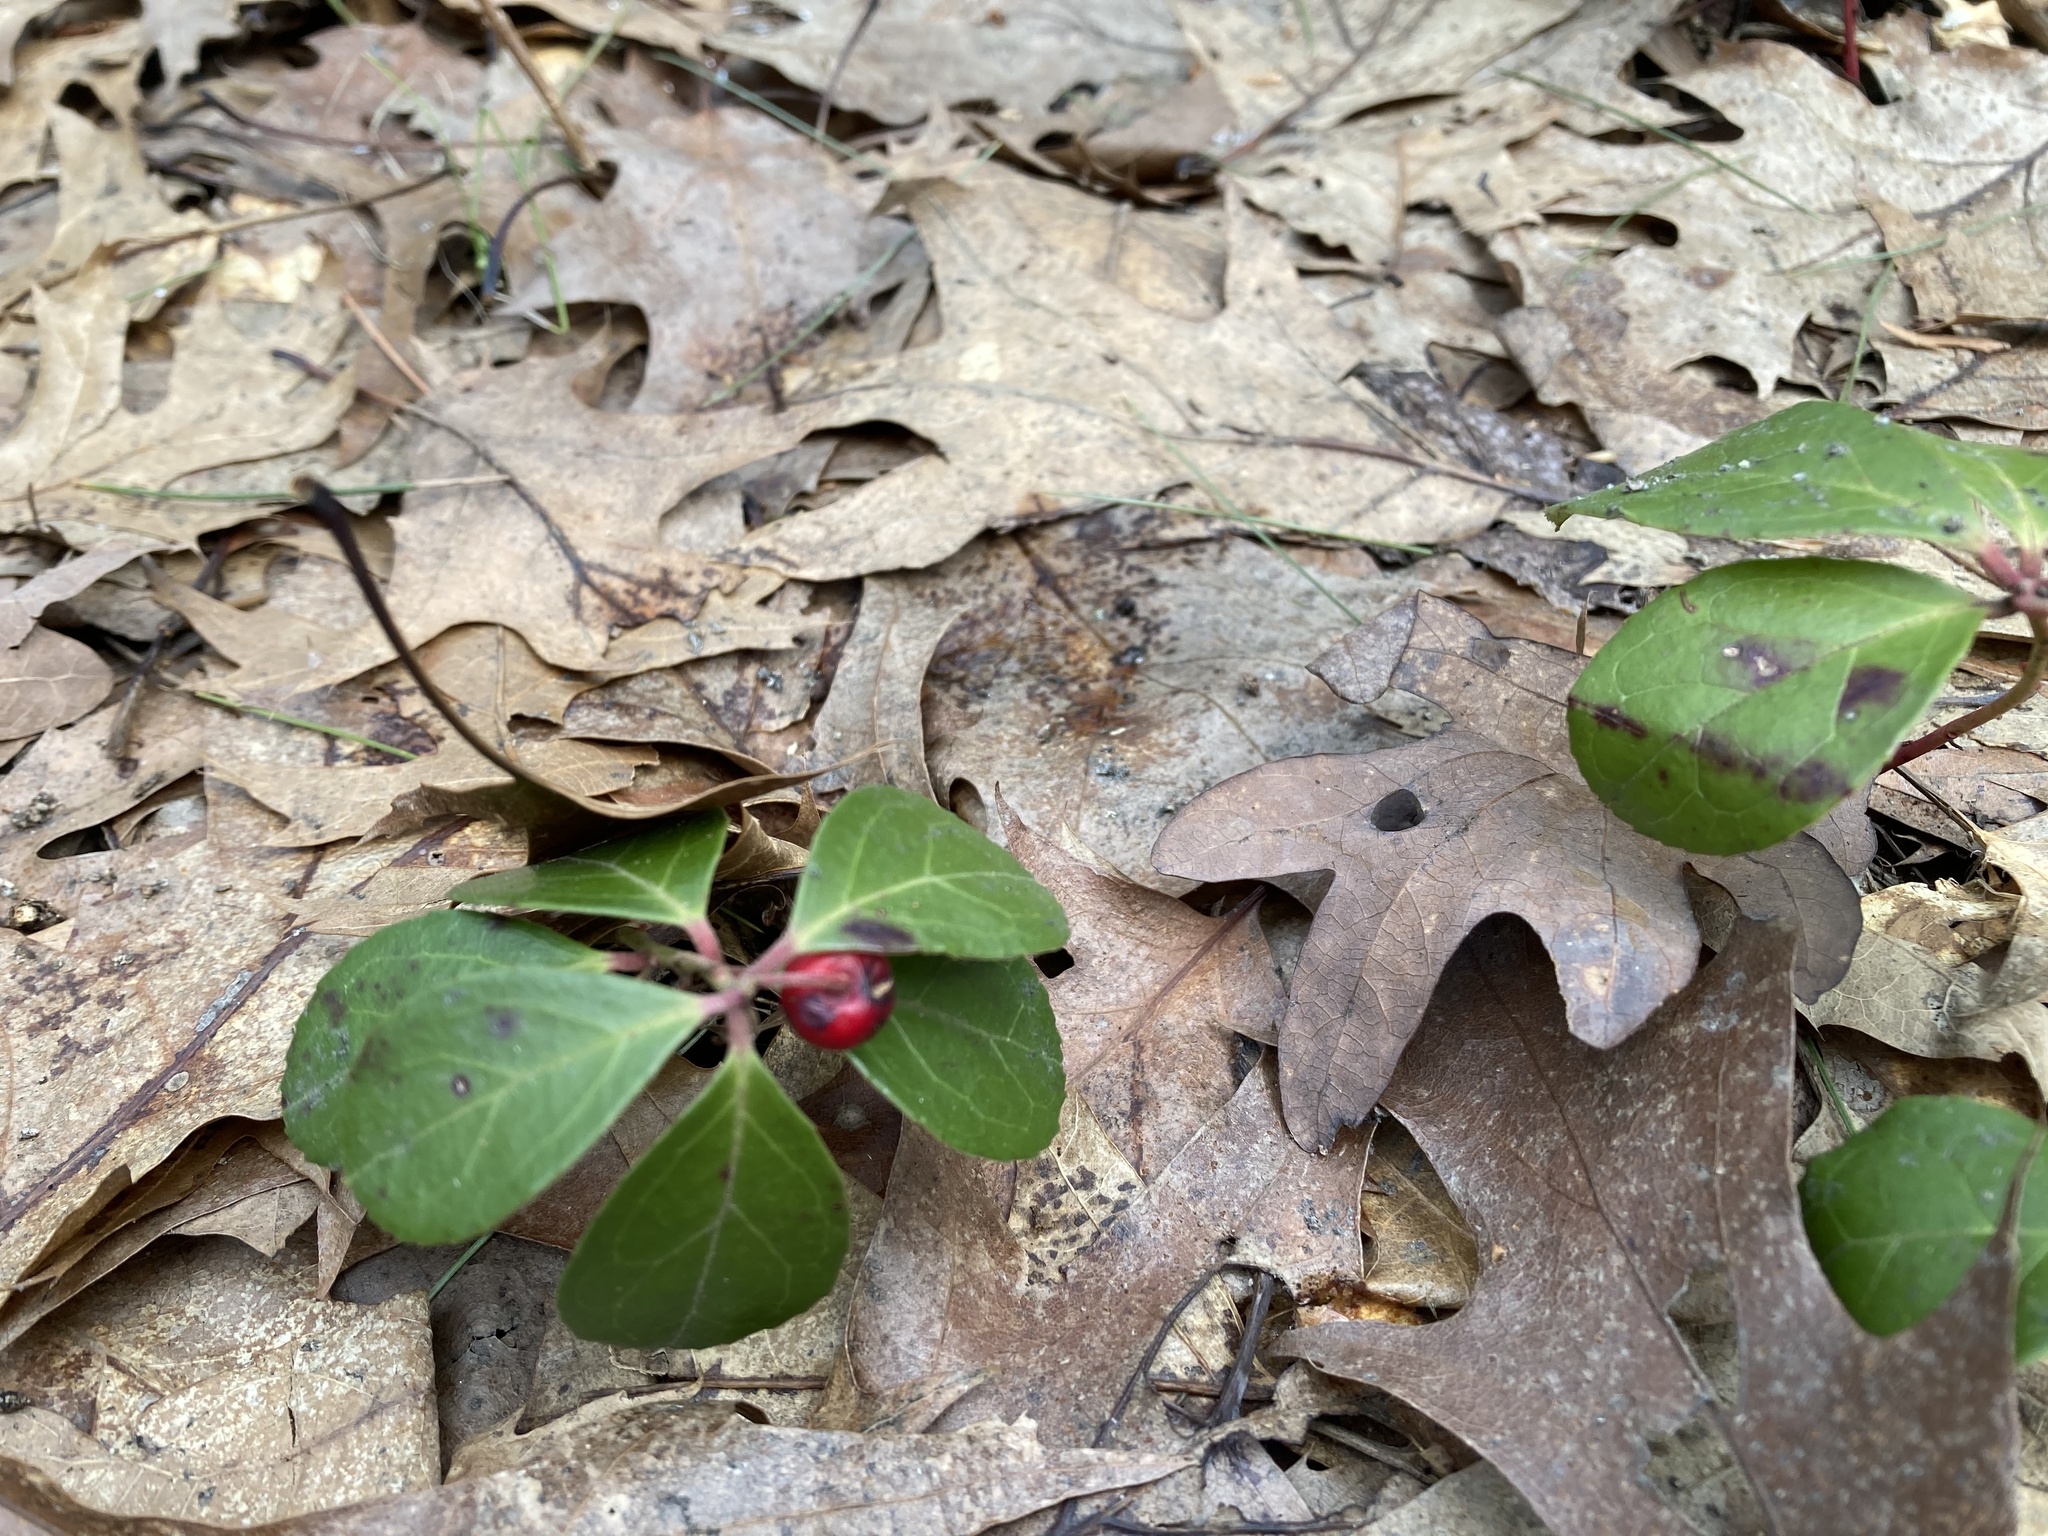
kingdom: Plantae
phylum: Tracheophyta
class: Magnoliopsida
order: Ericales
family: Ericaceae
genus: Gaultheria
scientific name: Gaultheria procumbens
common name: Checkerberry
